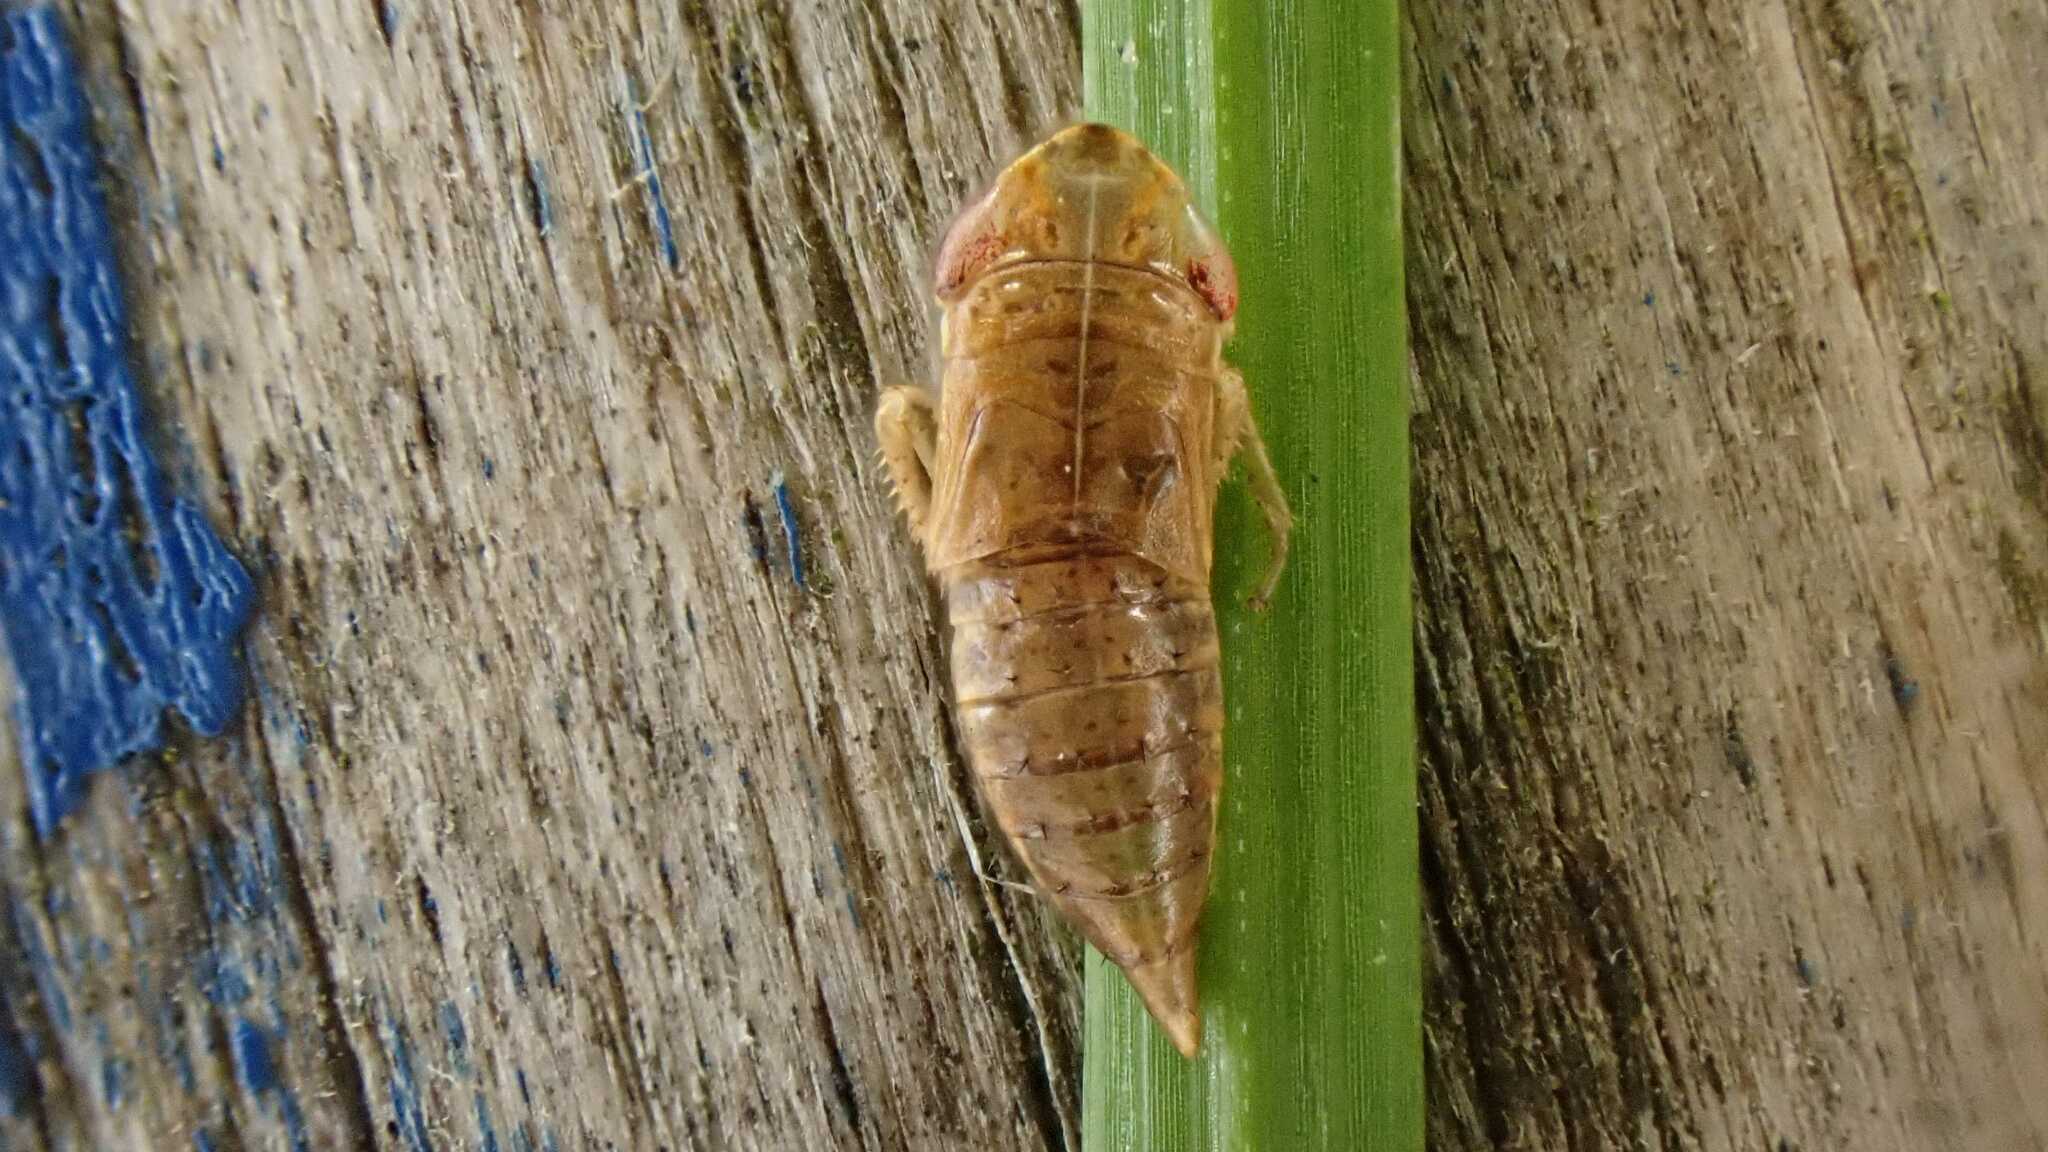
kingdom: Animalia
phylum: Arthropoda
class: Insecta
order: Hemiptera
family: Cicadellidae
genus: Doratura
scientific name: Doratura homophyla
